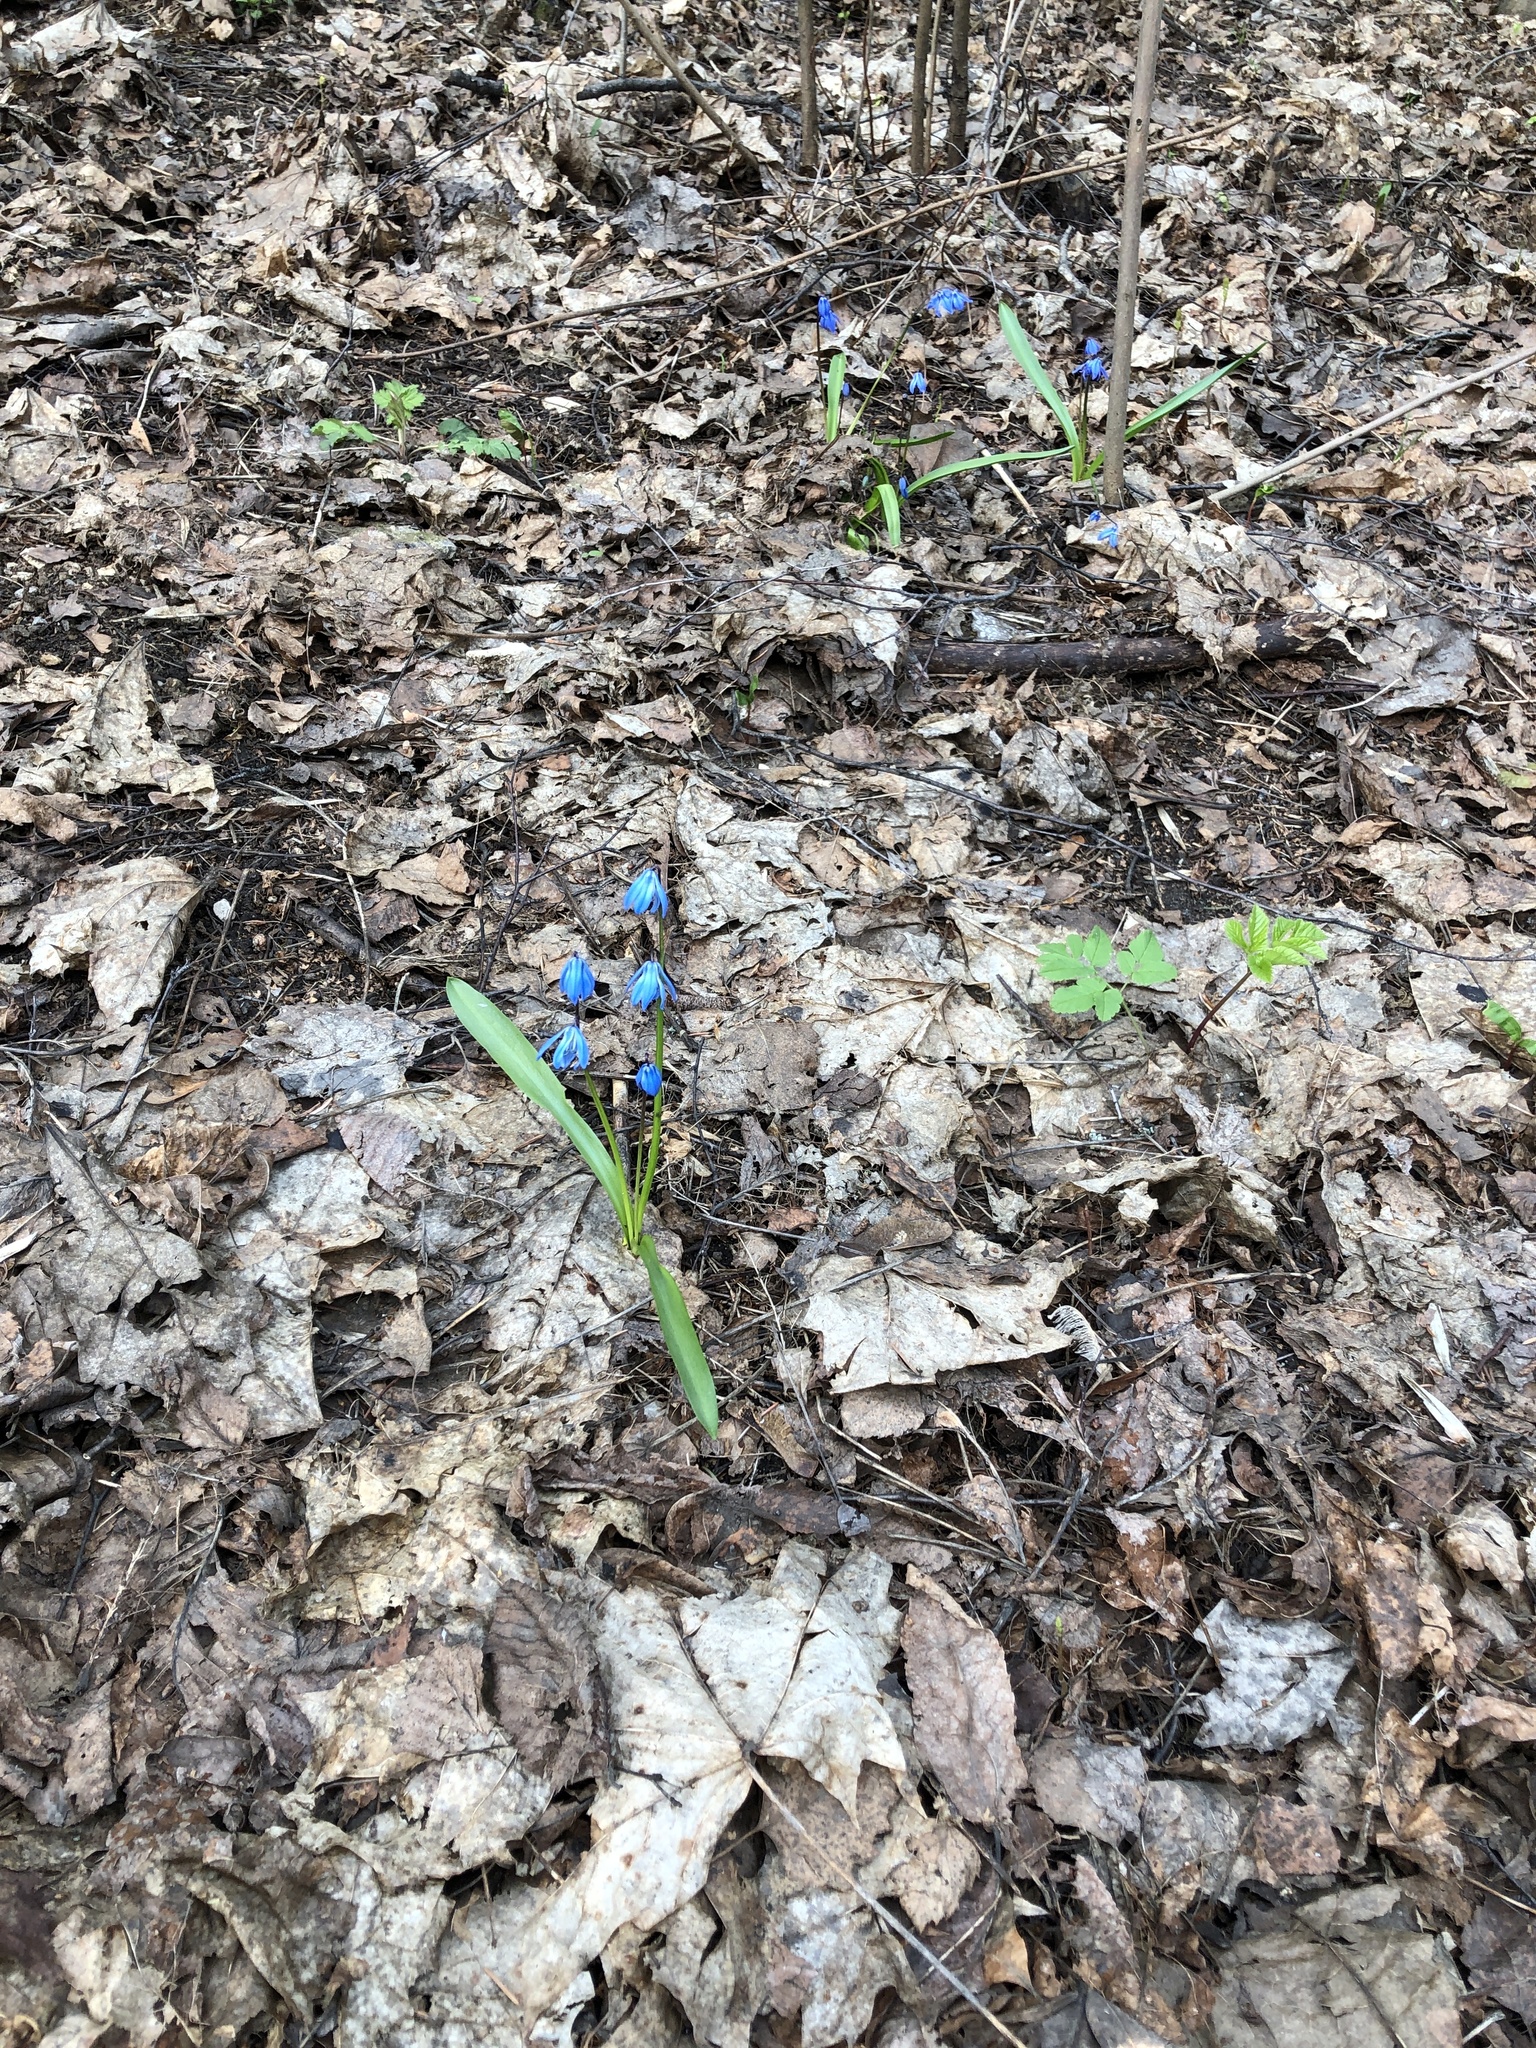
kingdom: Plantae
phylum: Tracheophyta
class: Liliopsida
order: Asparagales
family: Asparagaceae
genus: Scilla
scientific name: Scilla siberica
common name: Siberian squill
